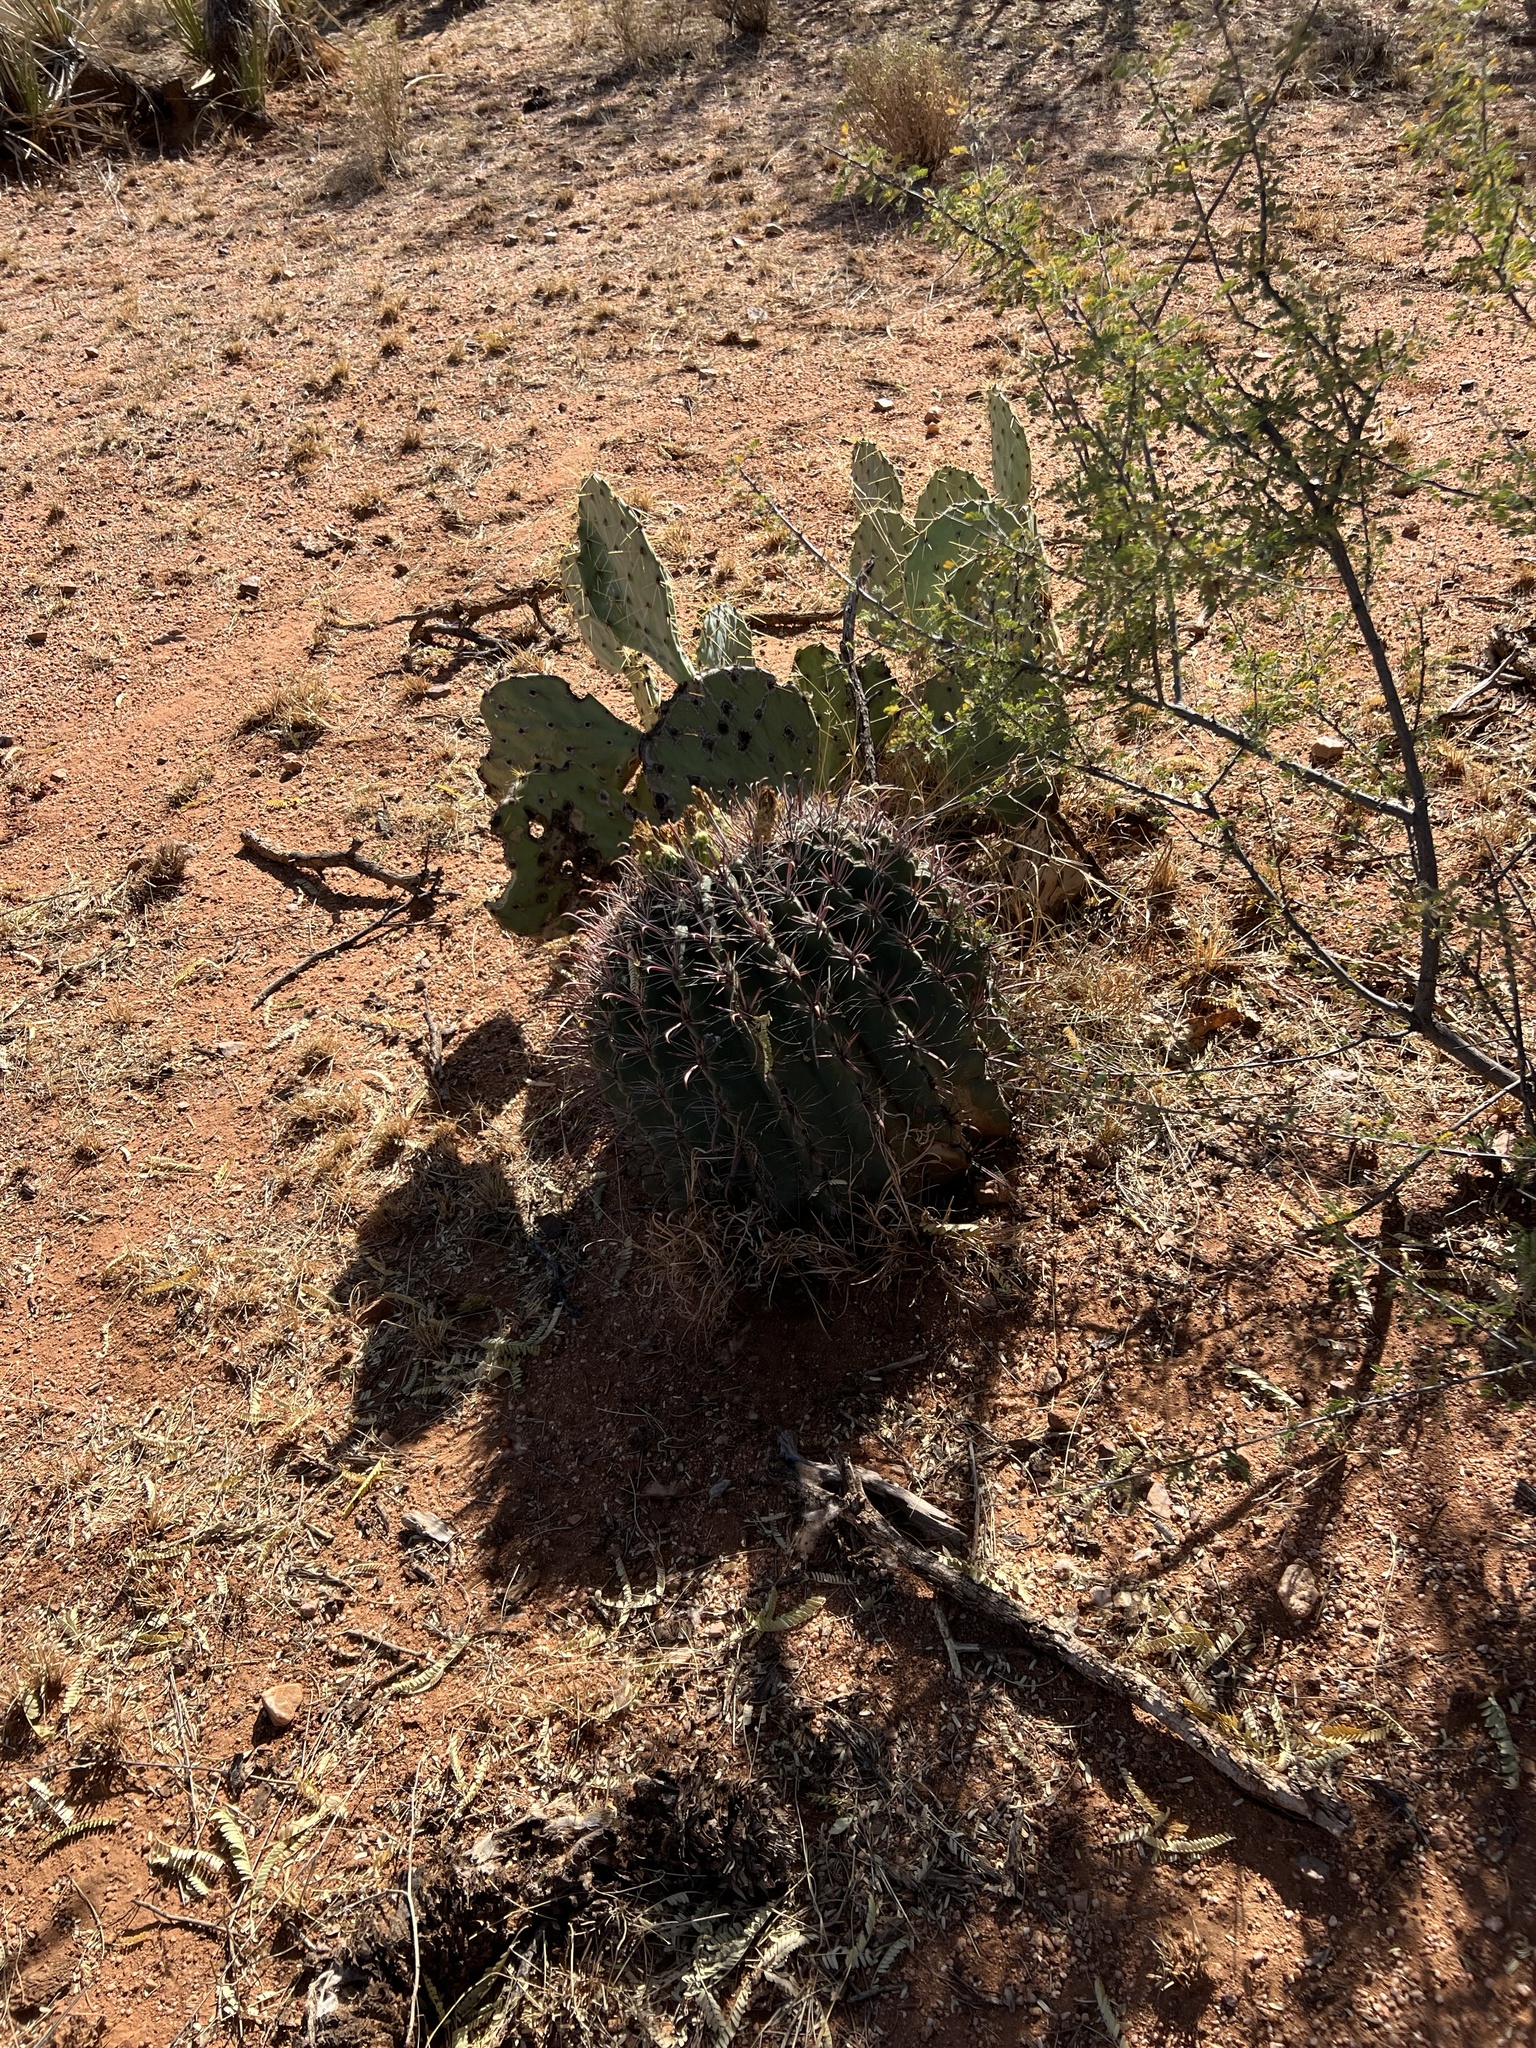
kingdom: Plantae
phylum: Tracheophyta
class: Magnoliopsida
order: Caryophyllales
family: Cactaceae
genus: Ferocactus
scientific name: Ferocactus wislizeni
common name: Candy barrel cactus
